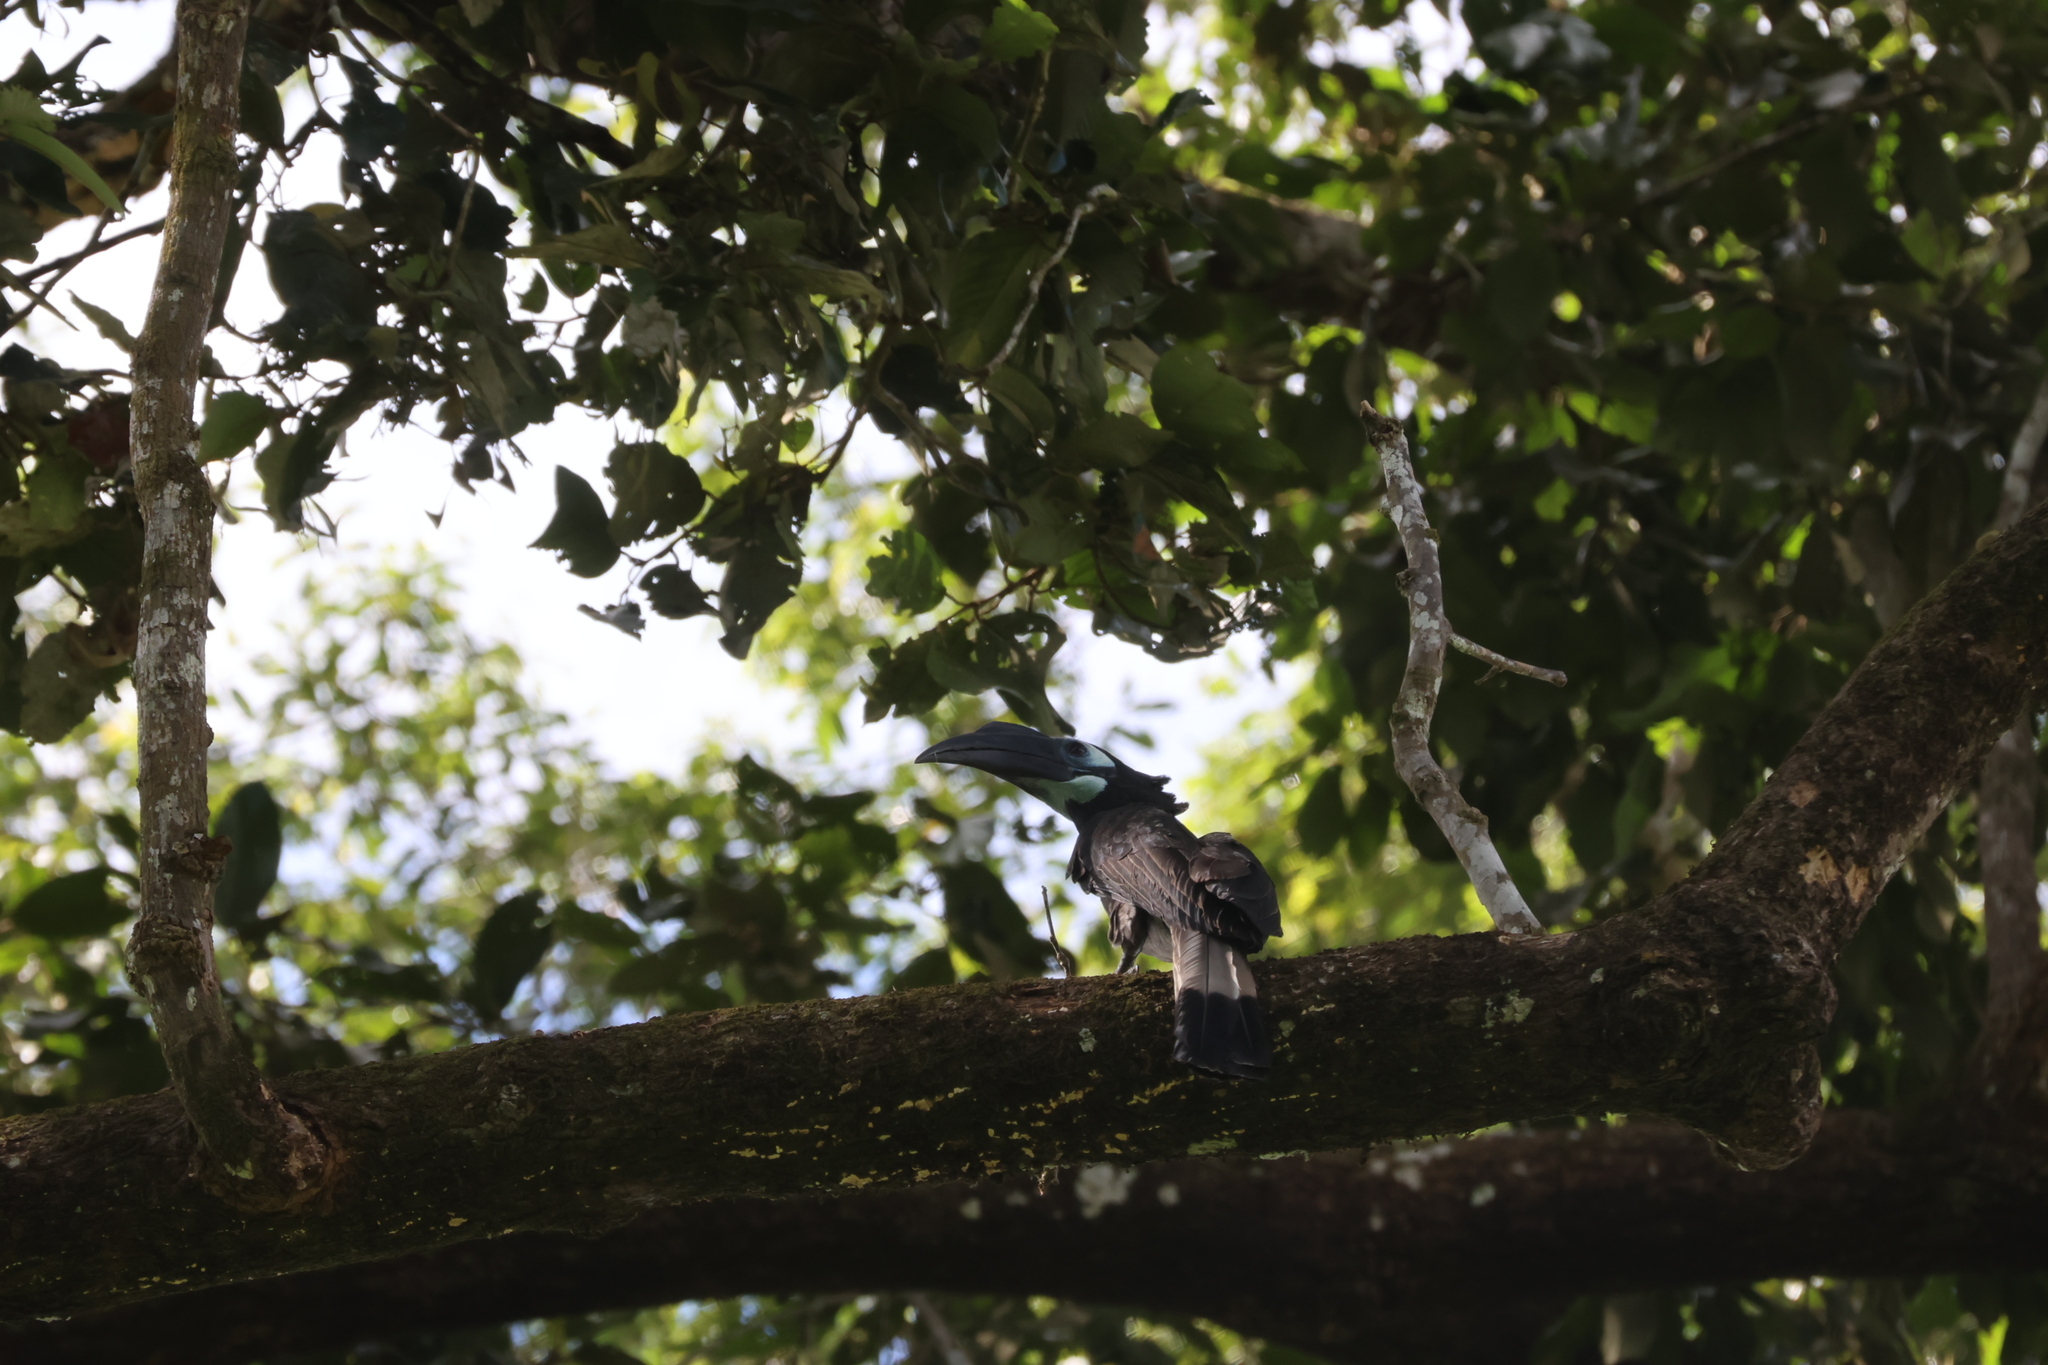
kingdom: Animalia
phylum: Chordata
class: Aves
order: Bucerotiformes
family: Bucerotidae
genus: Anorrhinus
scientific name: Anorrhinus galeritus
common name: Bushy-crested hornbill
